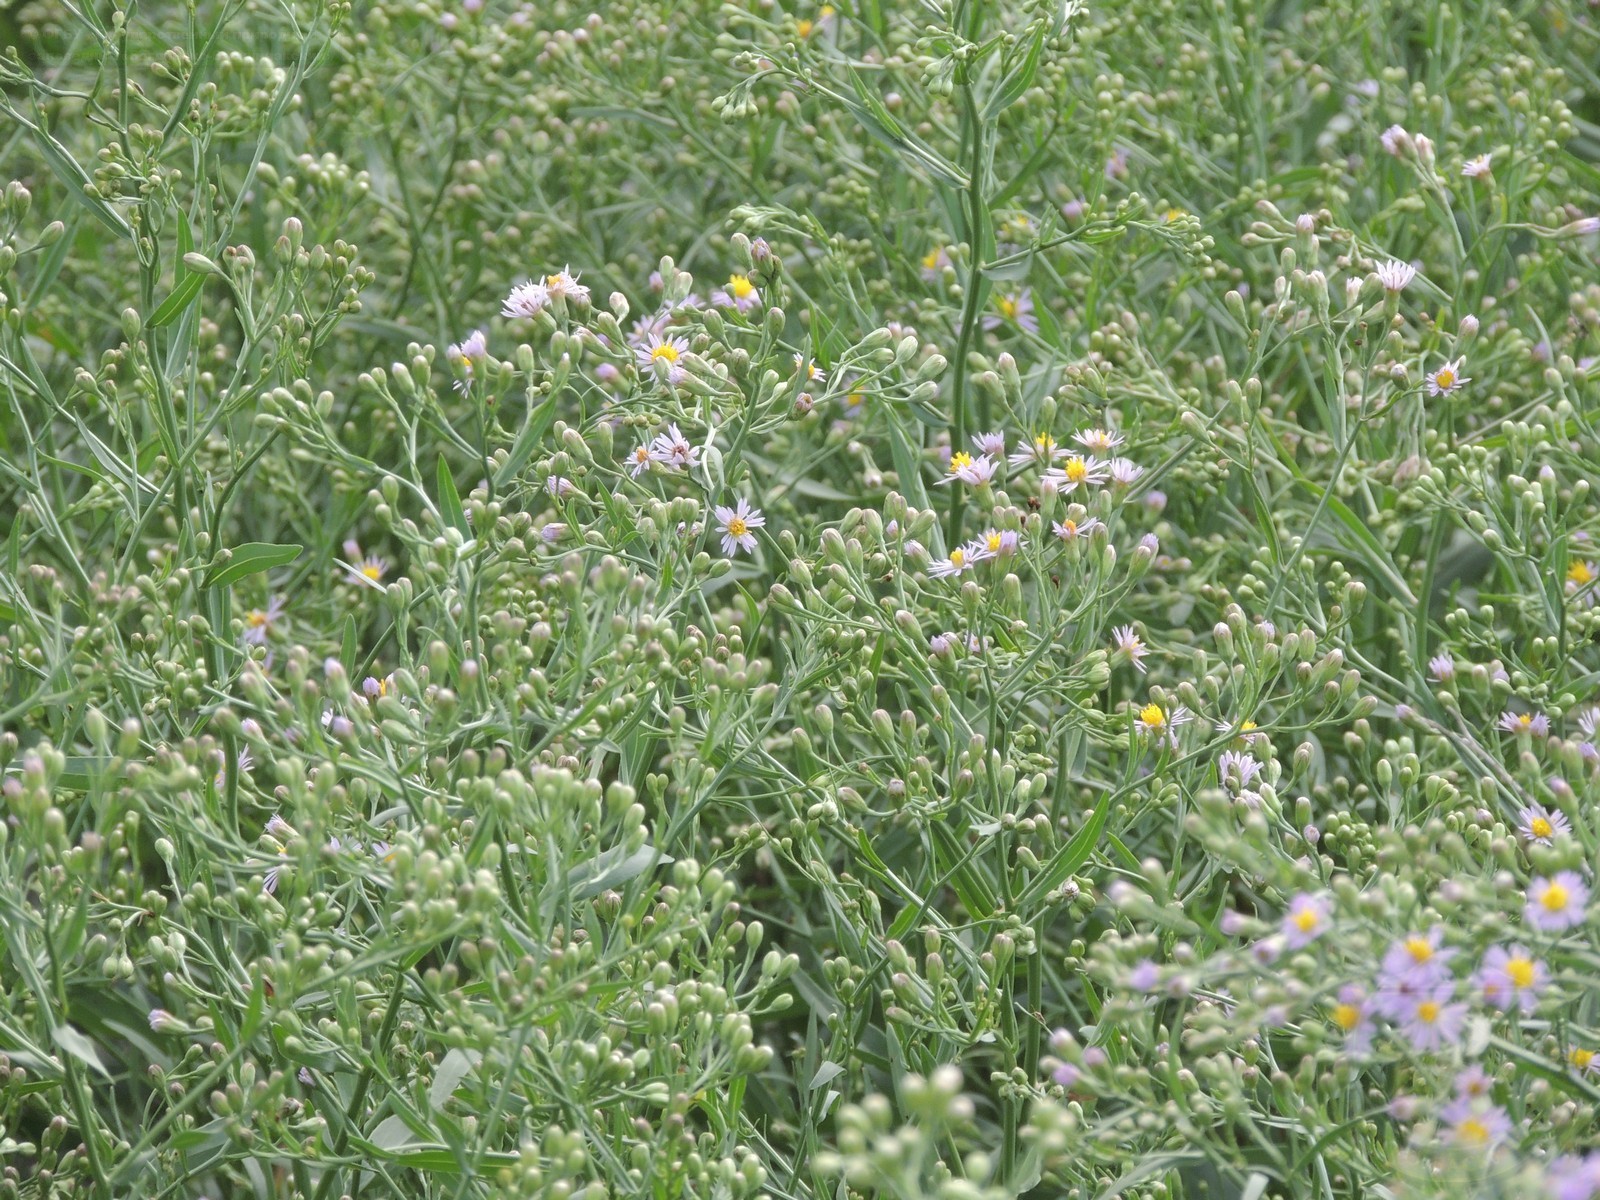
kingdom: Plantae
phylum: Tracheophyta
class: Magnoliopsida
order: Asterales
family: Asteraceae
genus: Tripolium
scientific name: Tripolium pannonicum
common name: Sea aster
